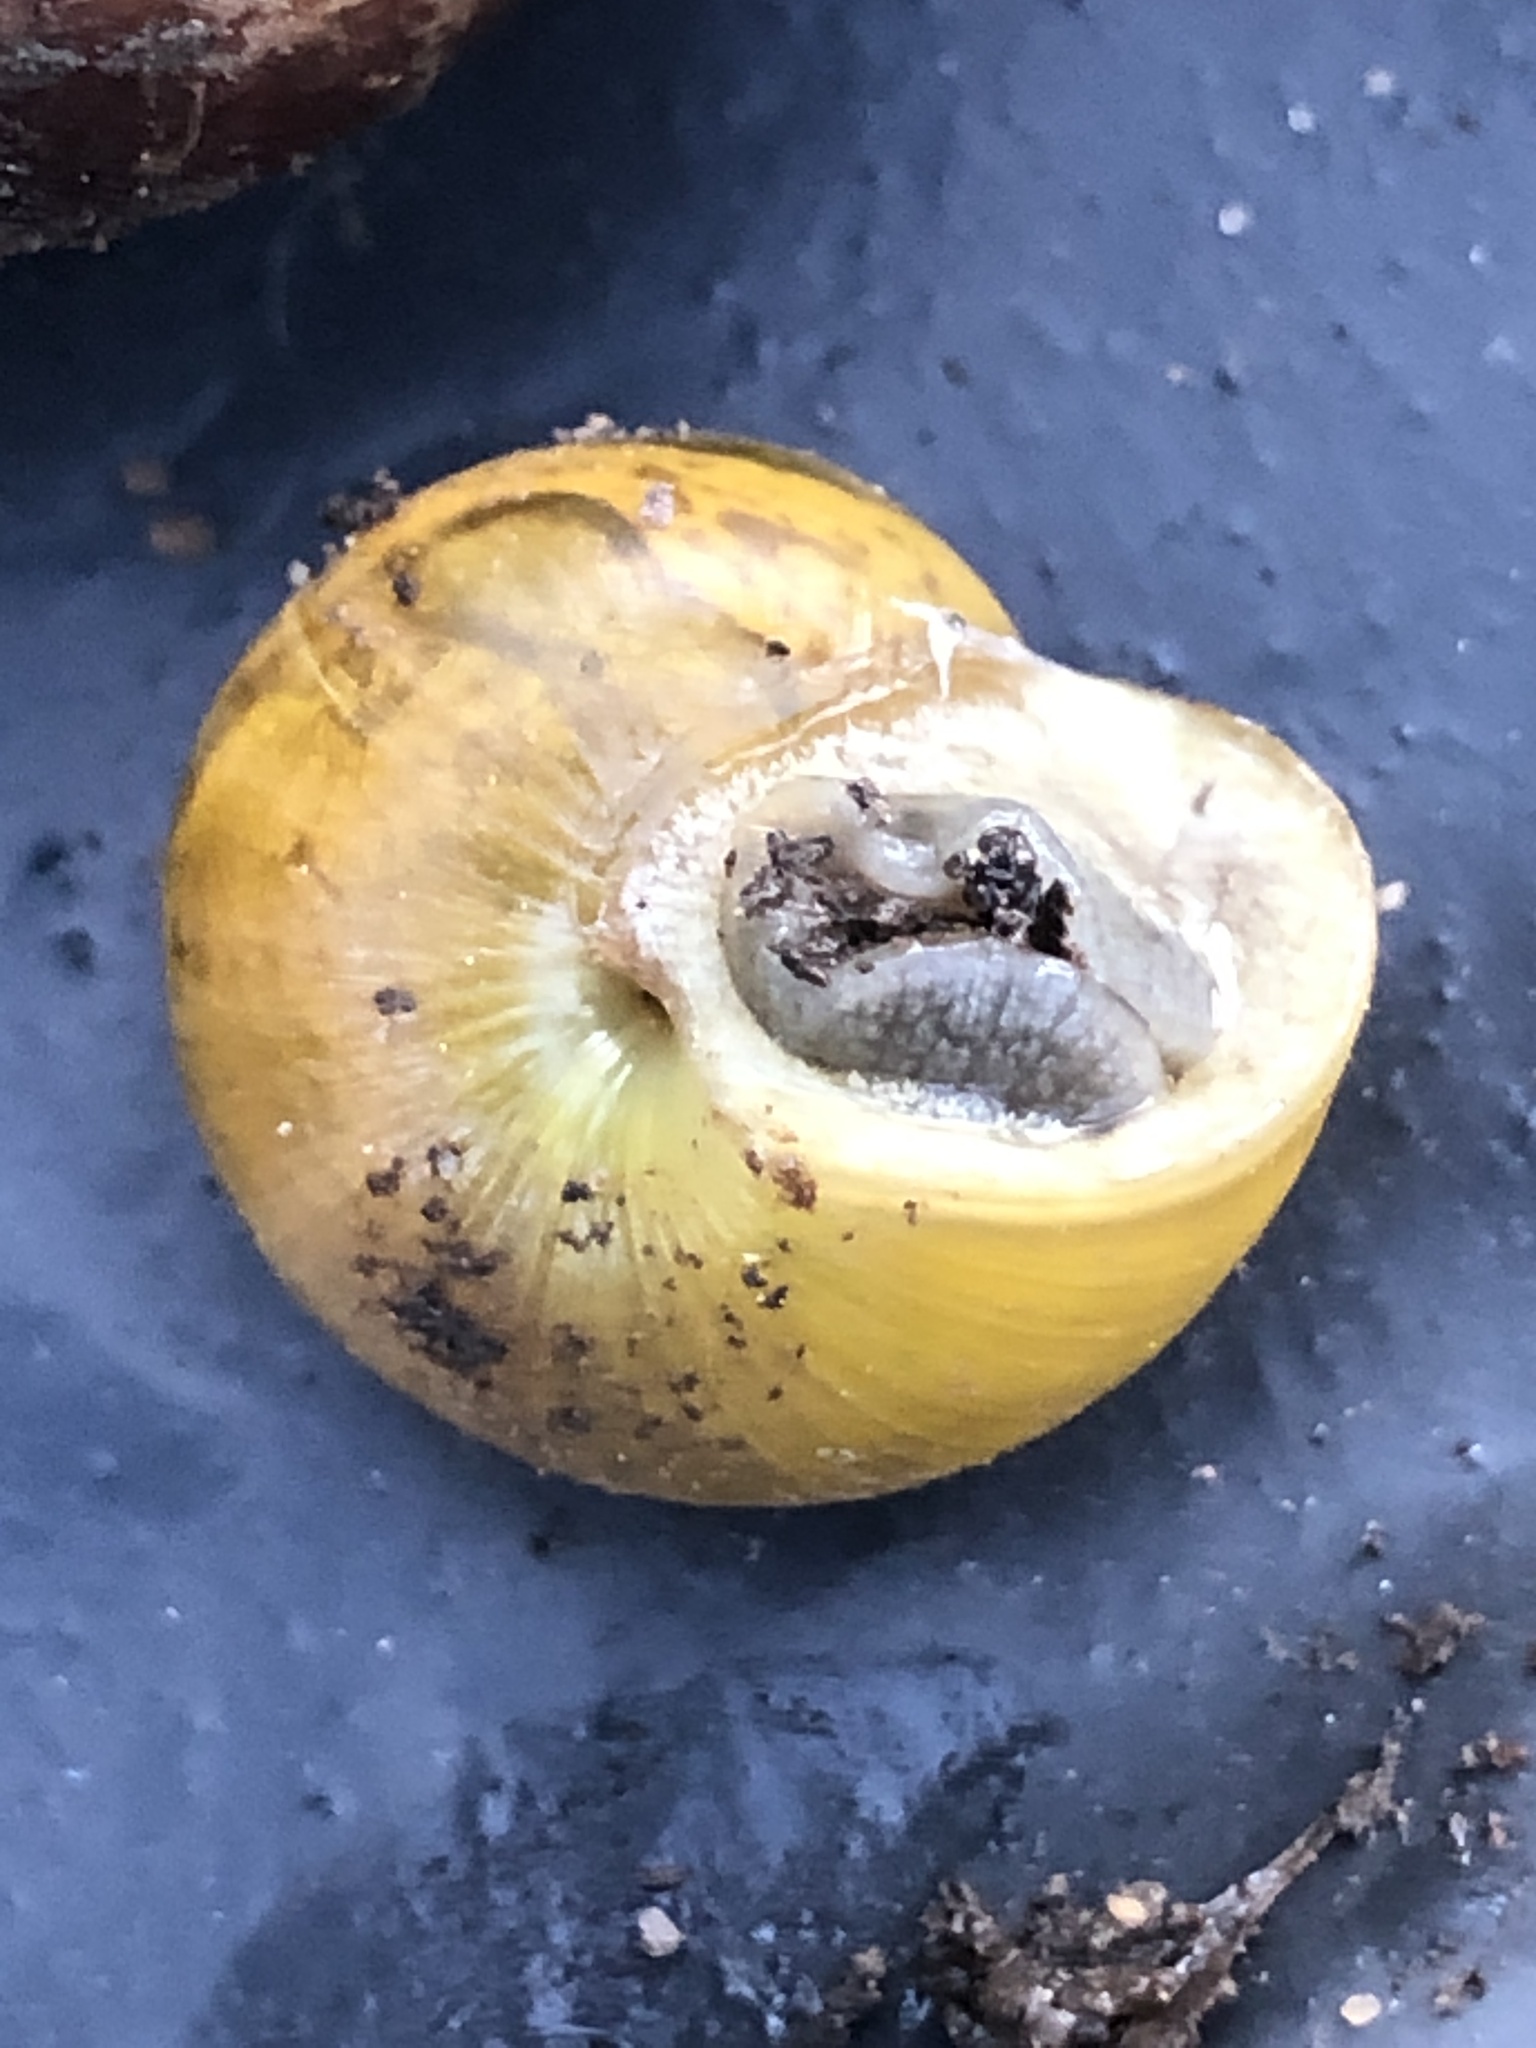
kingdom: Animalia
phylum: Mollusca
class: Gastropoda
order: Stylommatophora
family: Helicidae
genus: Cepaea
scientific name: Cepaea
